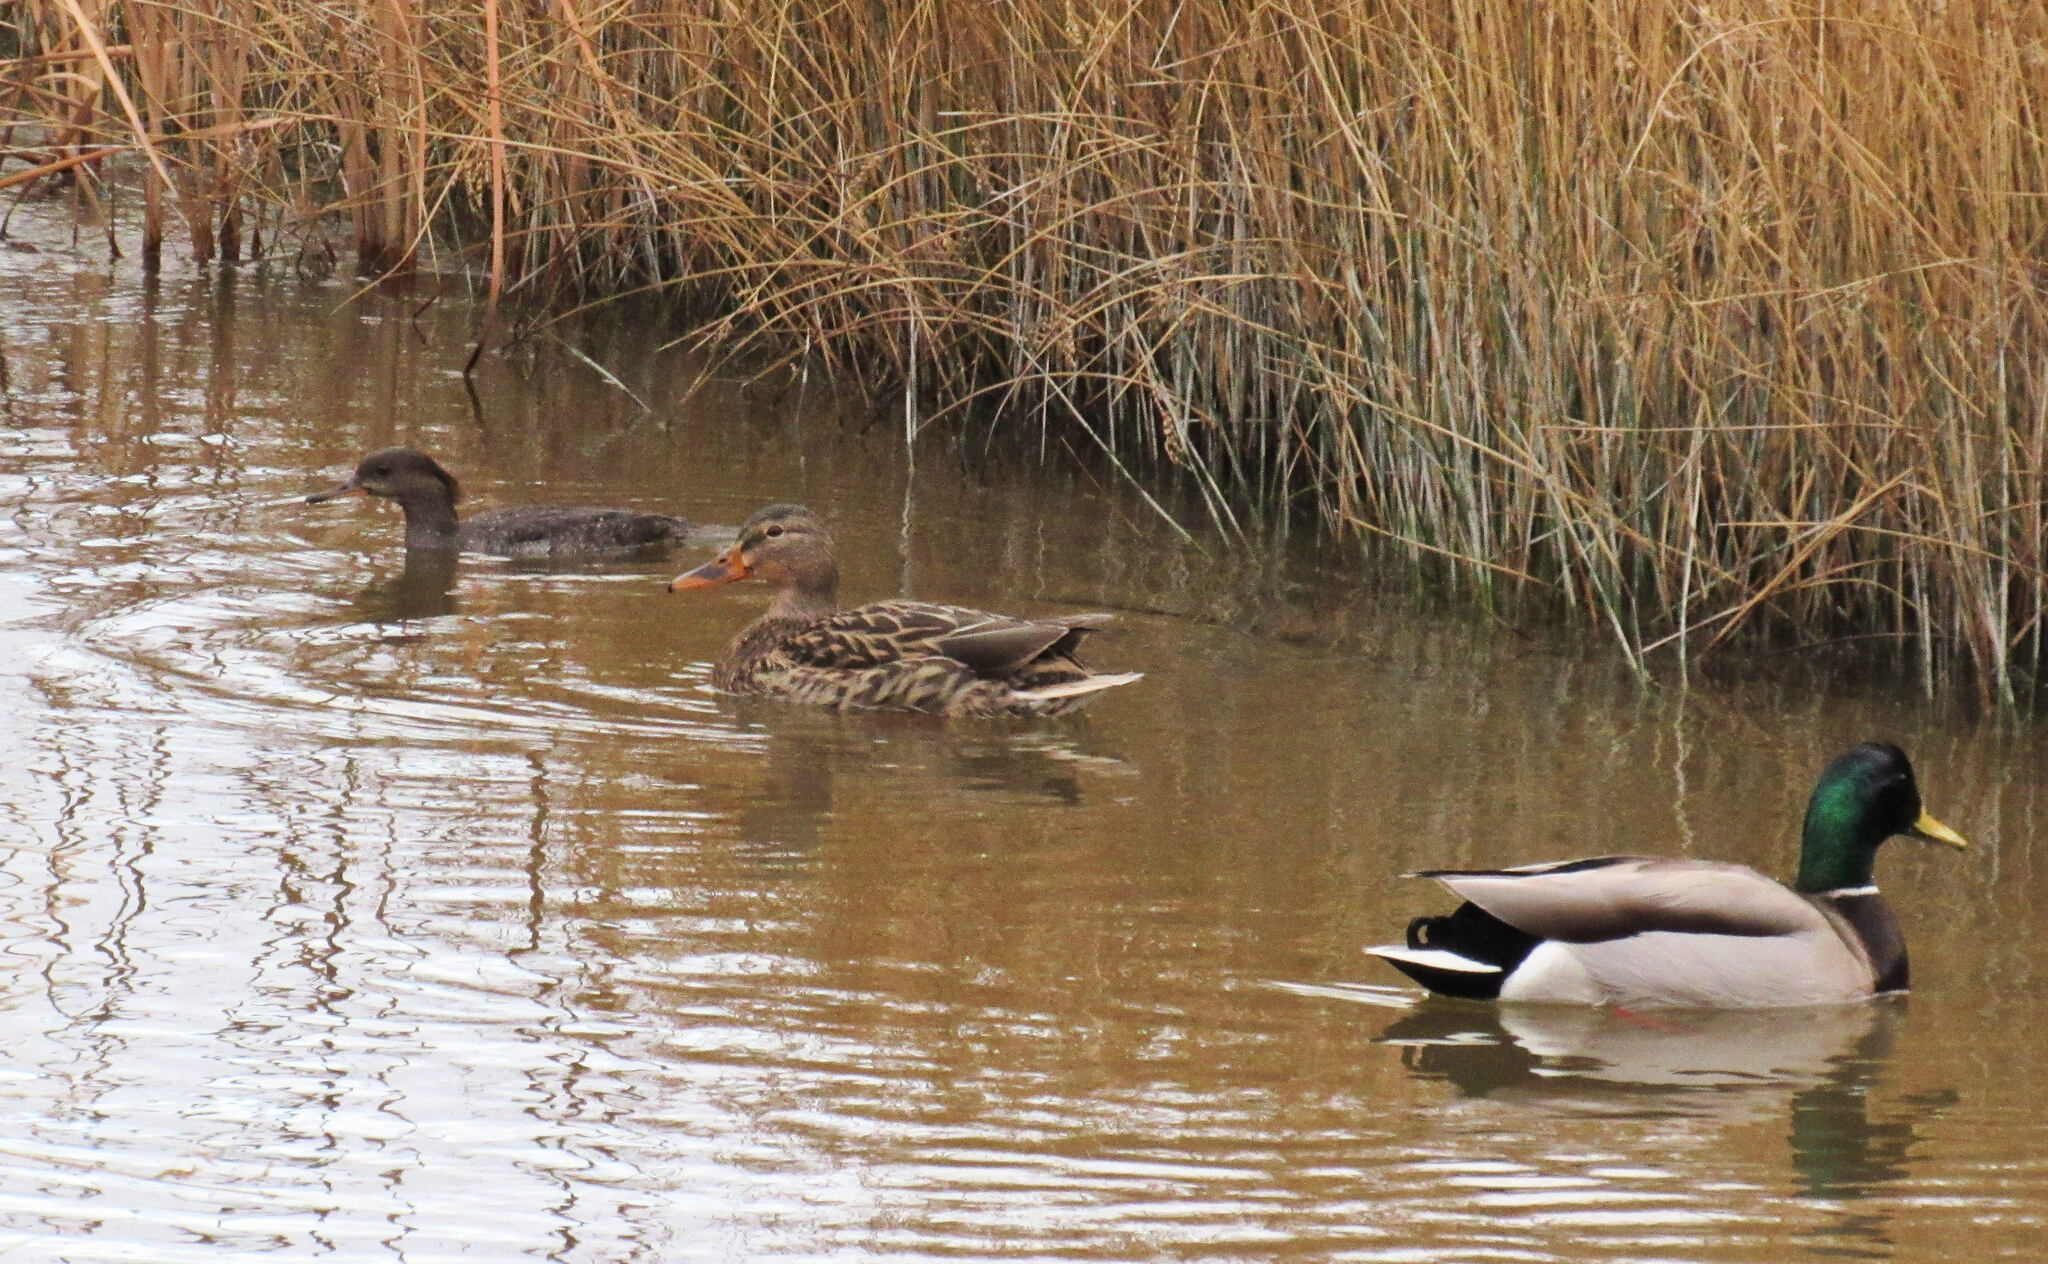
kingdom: Animalia
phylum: Chordata
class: Aves
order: Anseriformes
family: Anatidae
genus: Anas
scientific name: Anas platyrhynchos
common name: Mallard
